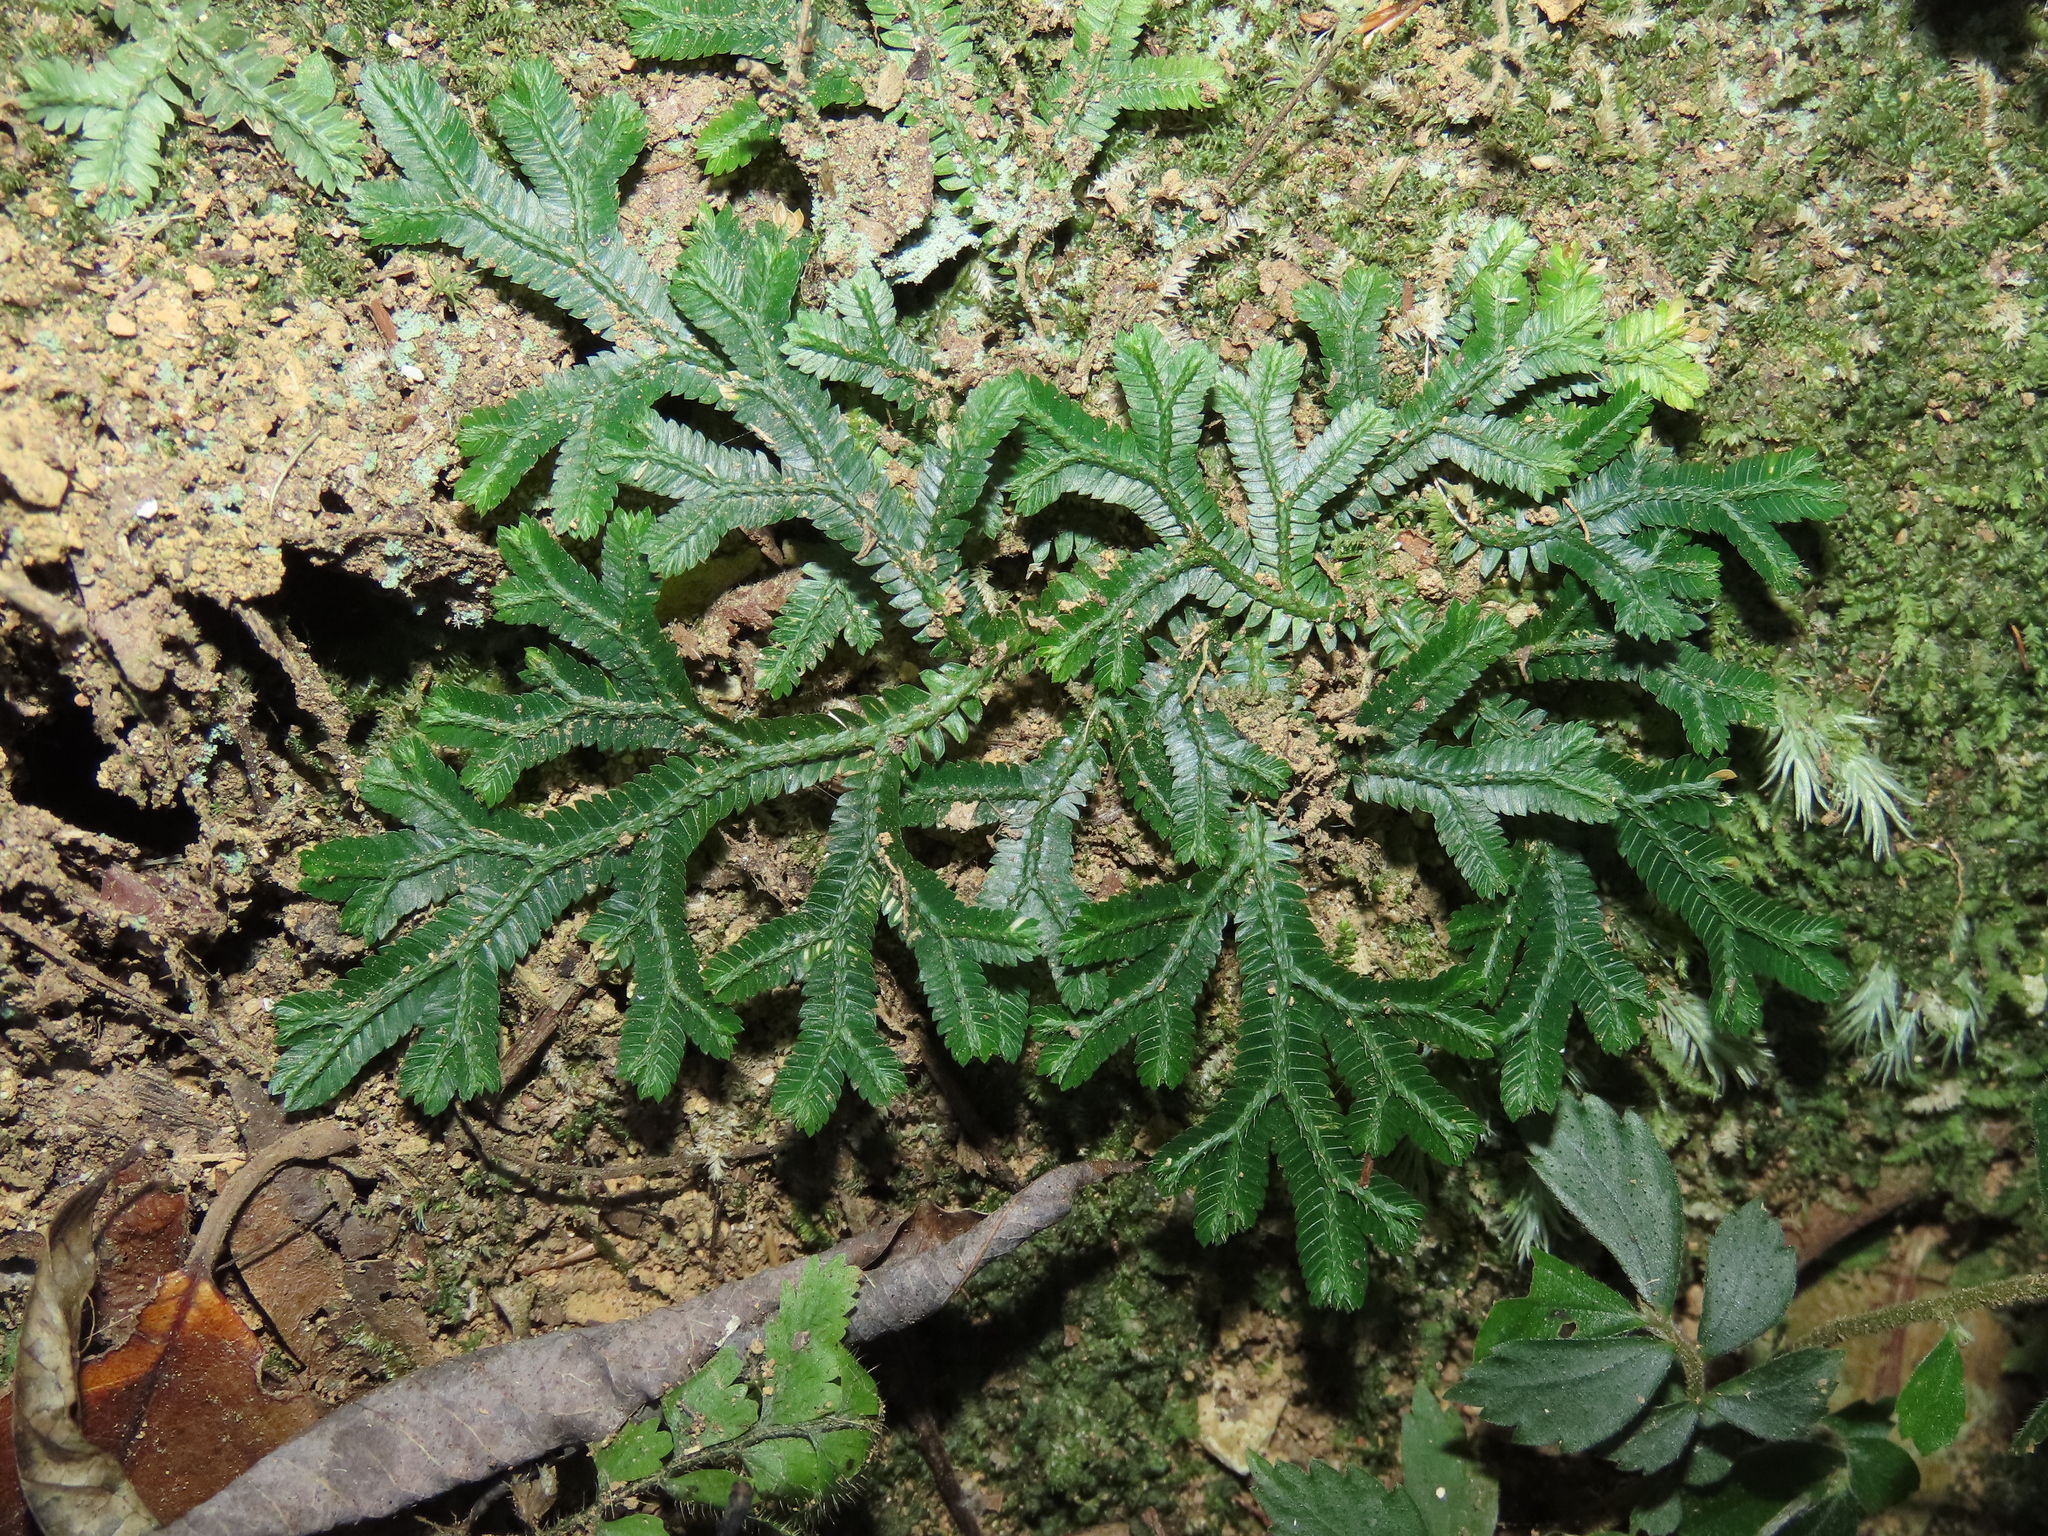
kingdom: Plantae
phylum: Tracheophyta
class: Lycopodiopsida
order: Selaginellales
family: Selaginellaceae
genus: Selaginella
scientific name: Selaginella doederleinii
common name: Greater selaginella
